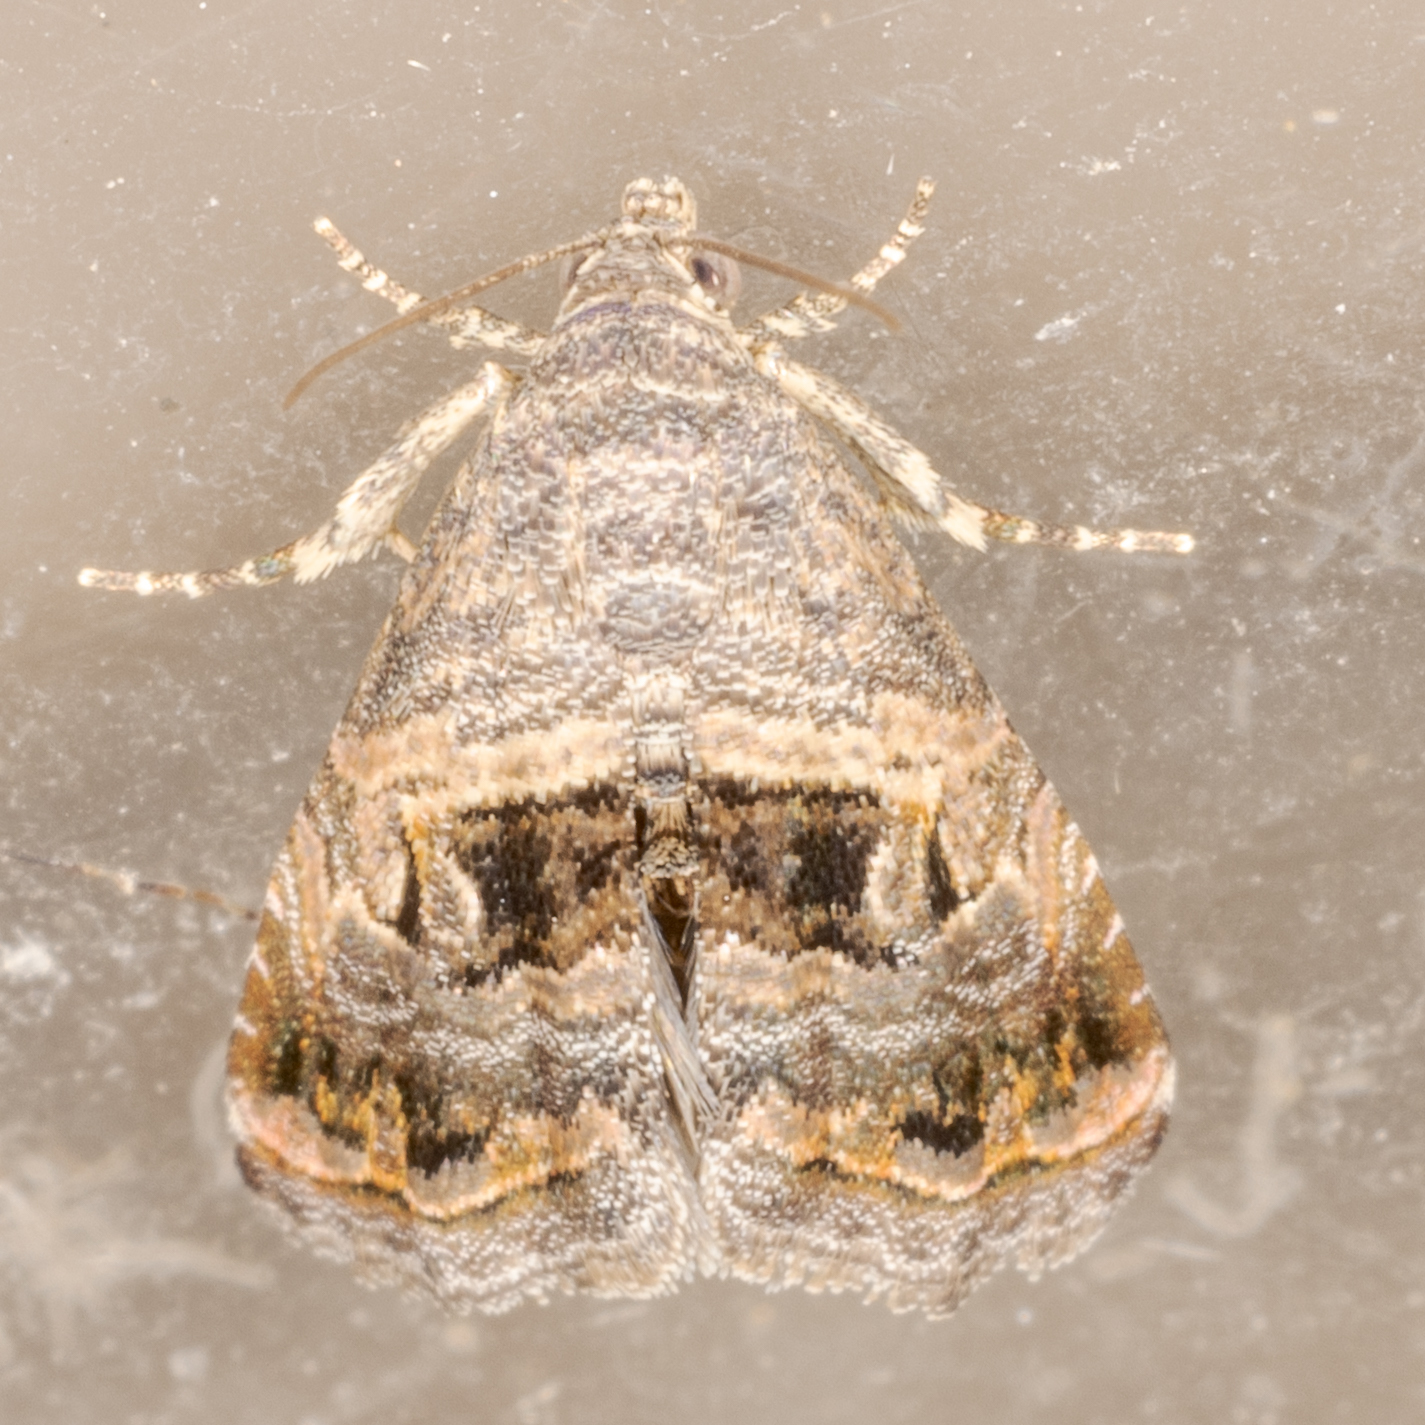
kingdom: Animalia
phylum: Arthropoda
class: Insecta
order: Lepidoptera
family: Noctuidae
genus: Tripudia
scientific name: Tripudia quadrifera
